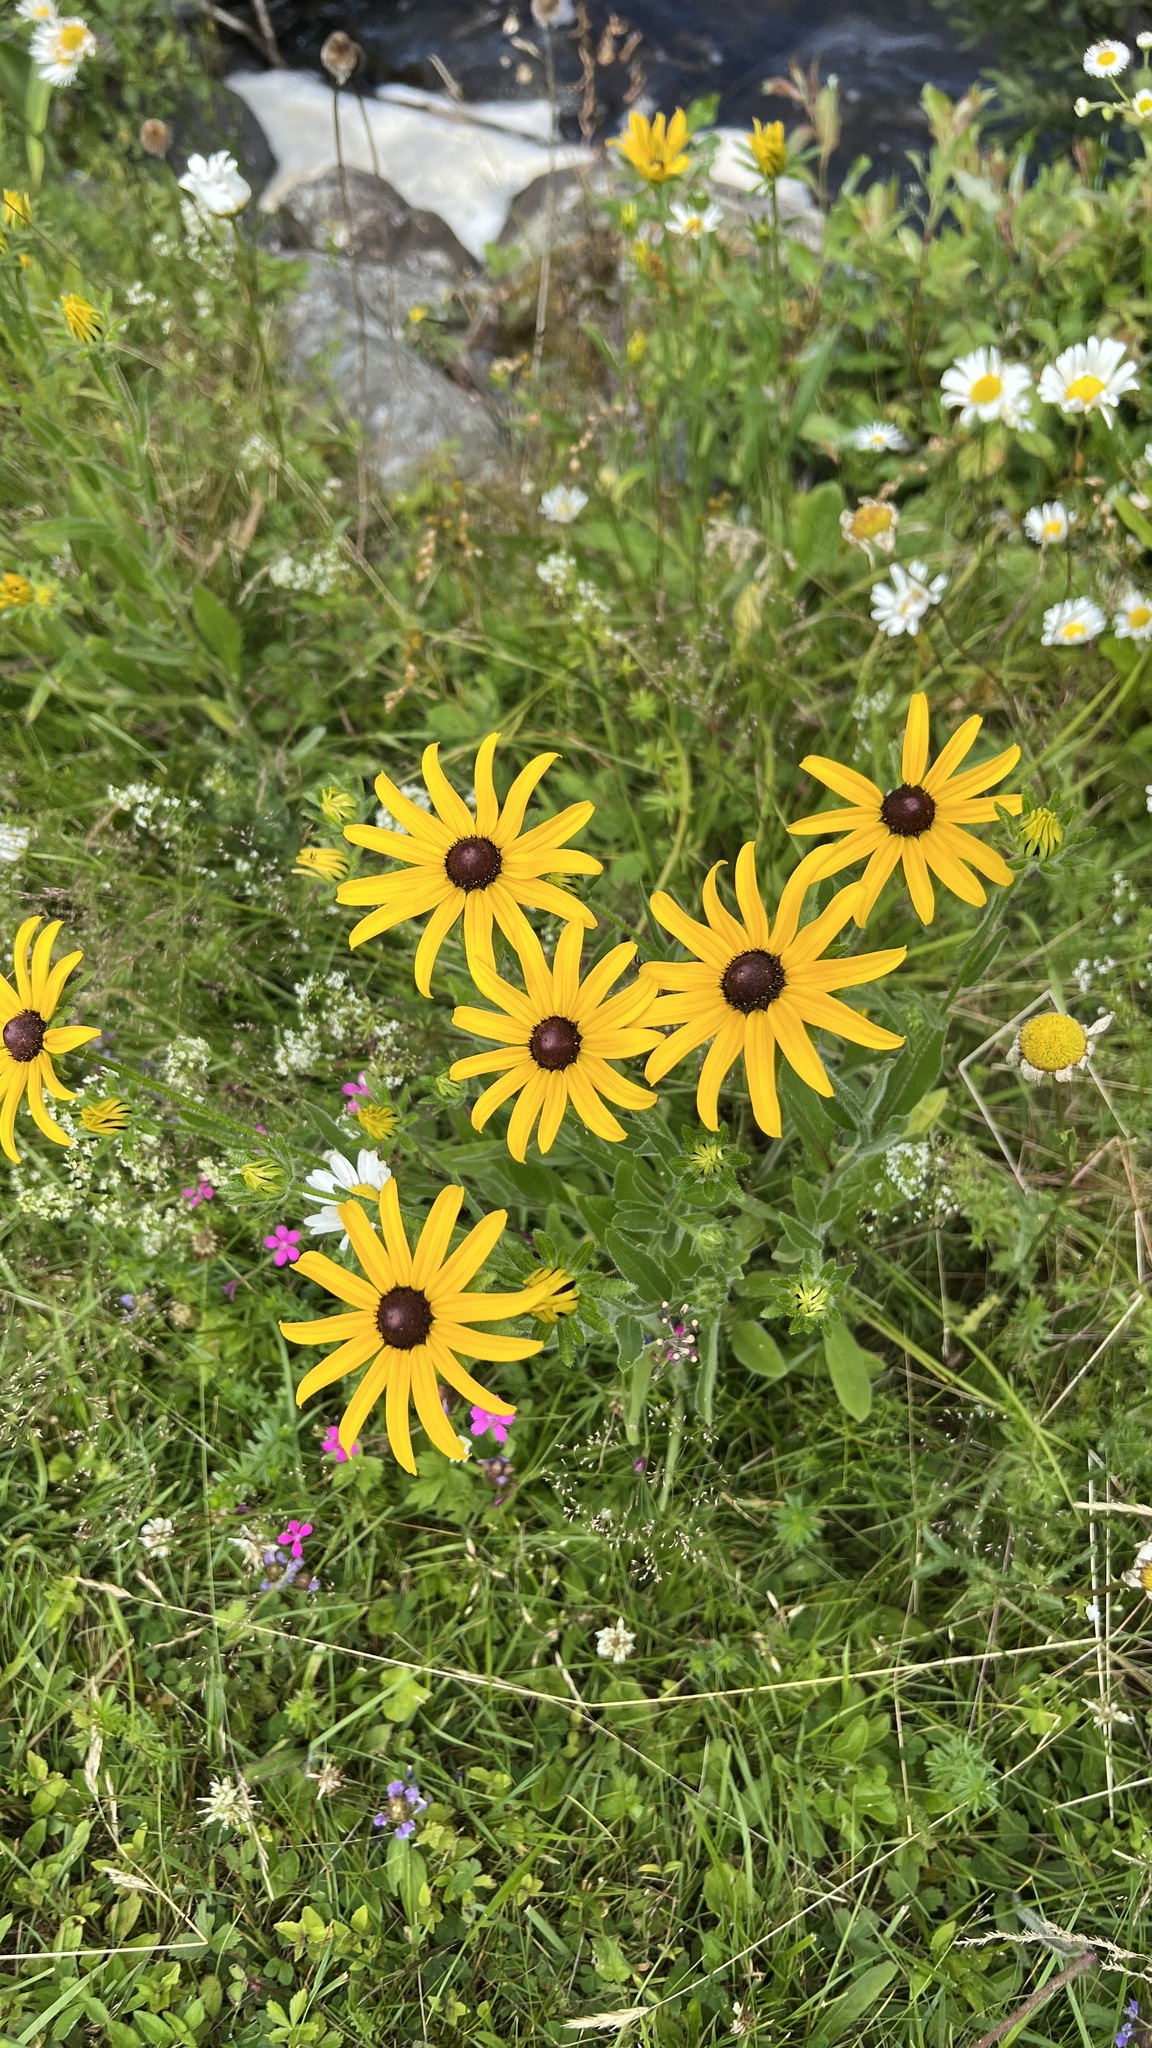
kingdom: Plantae
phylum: Tracheophyta
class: Magnoliopsida
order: Asterales
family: Asteraceae
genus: Rudbeckia
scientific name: Rudbeckia hirta
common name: Black-eyed-susan
